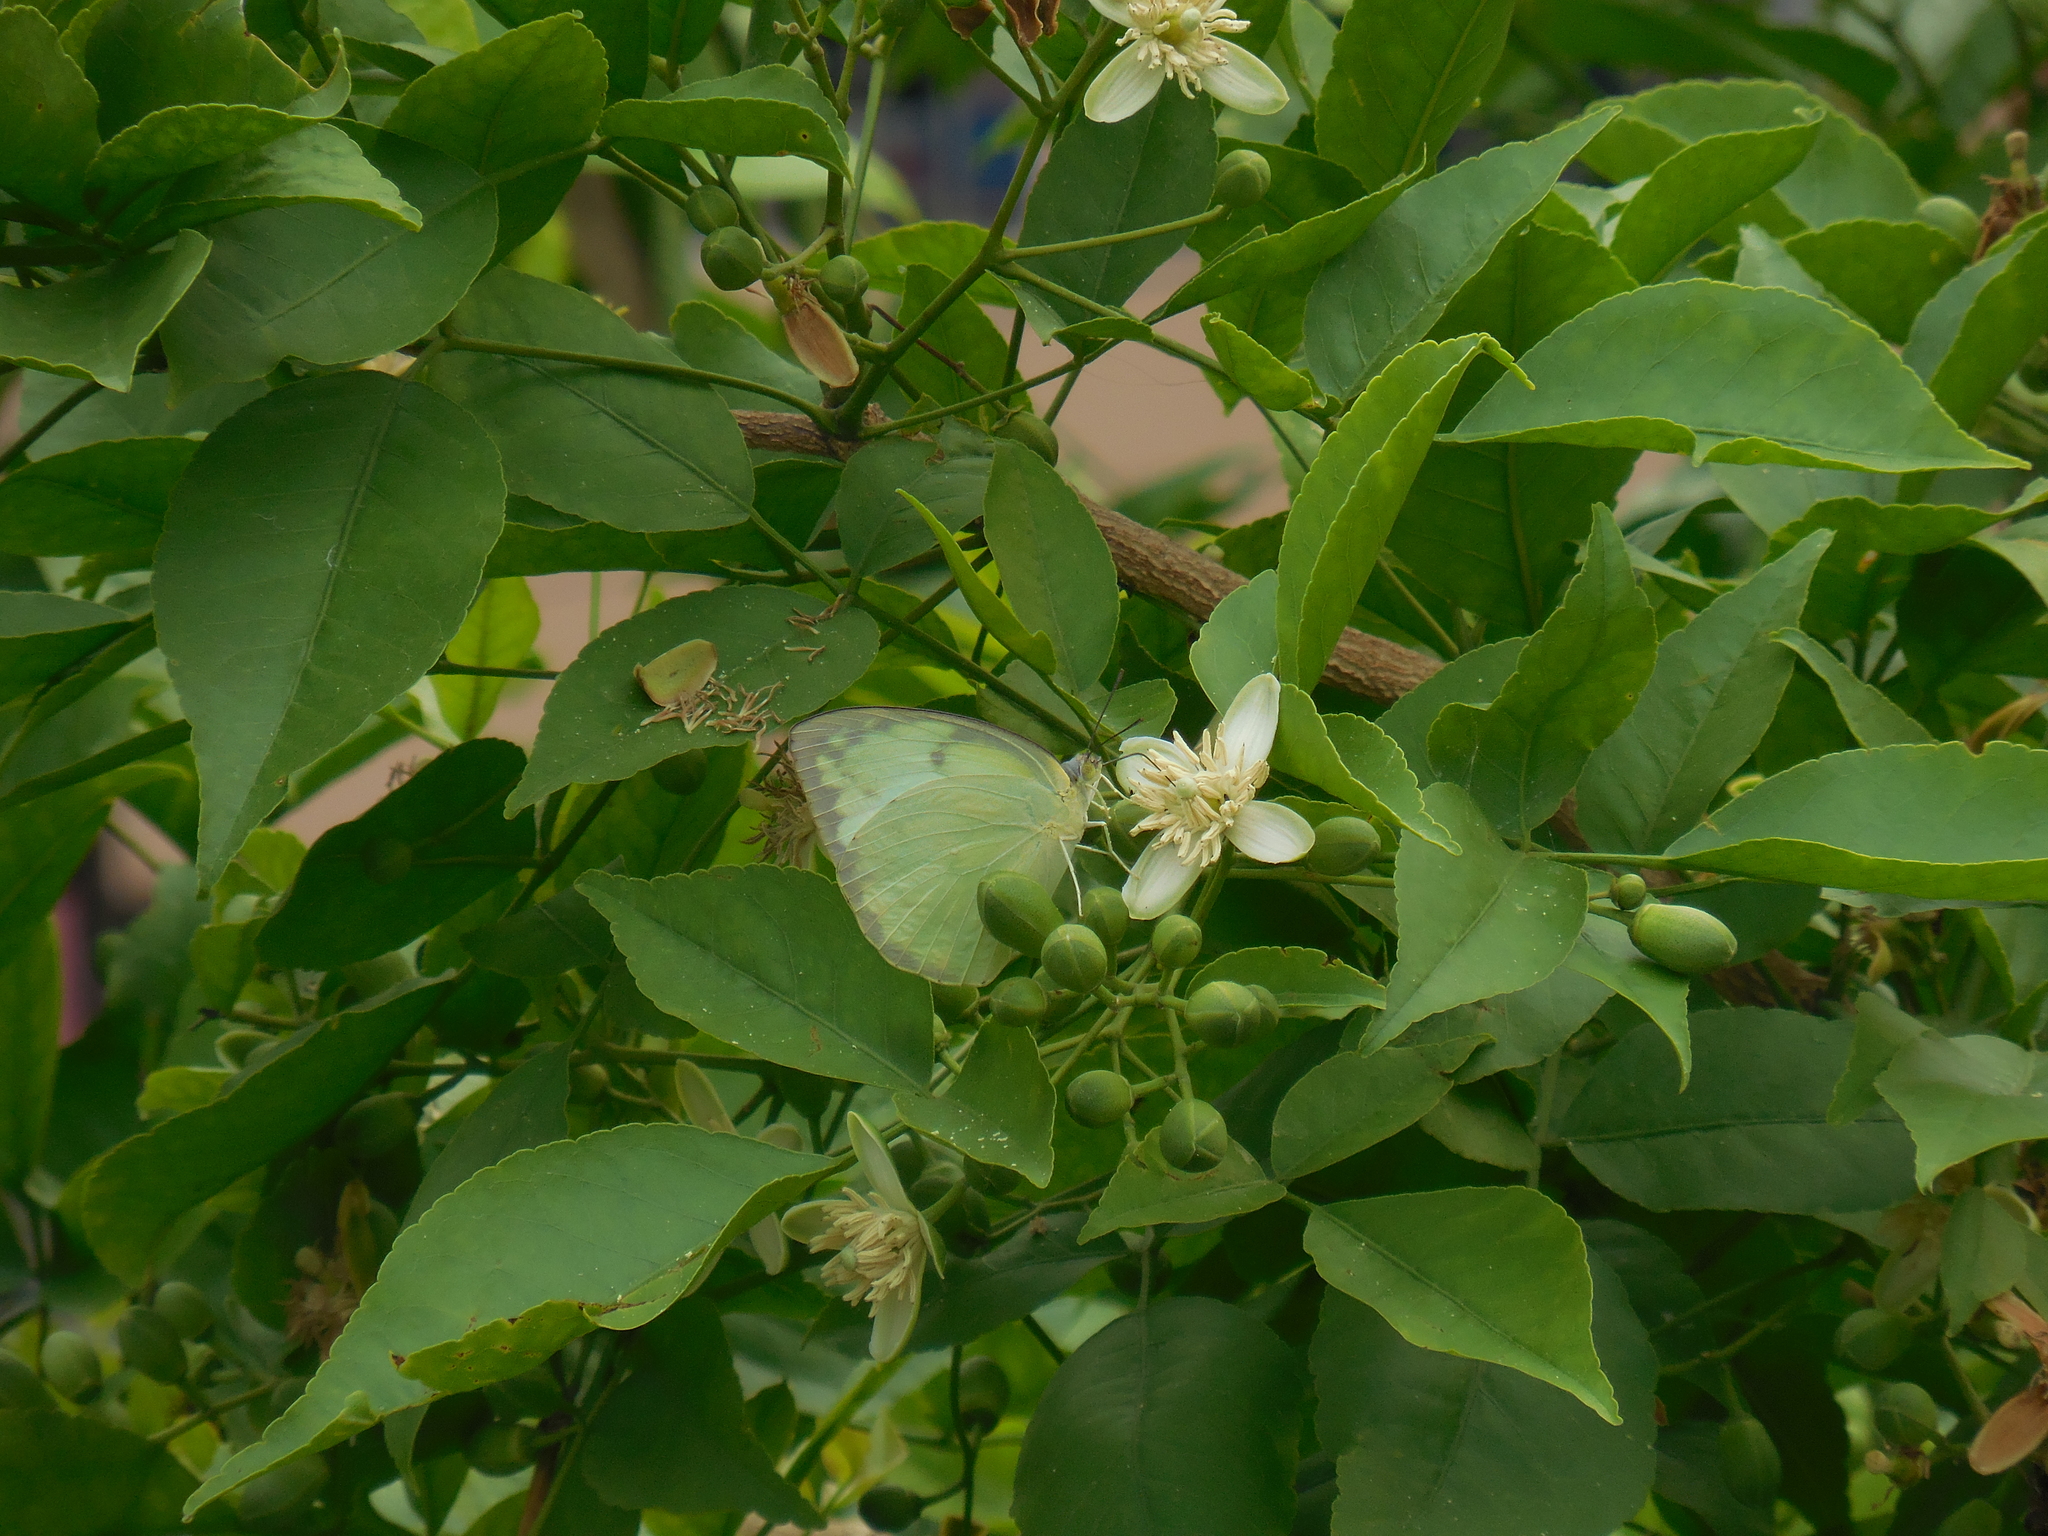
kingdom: Animalia
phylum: Arthropoda
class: Insecta
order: Lepidoptera
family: Pieridae
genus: Catopsilia
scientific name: Catopsilia pomona
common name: Common emigrant
